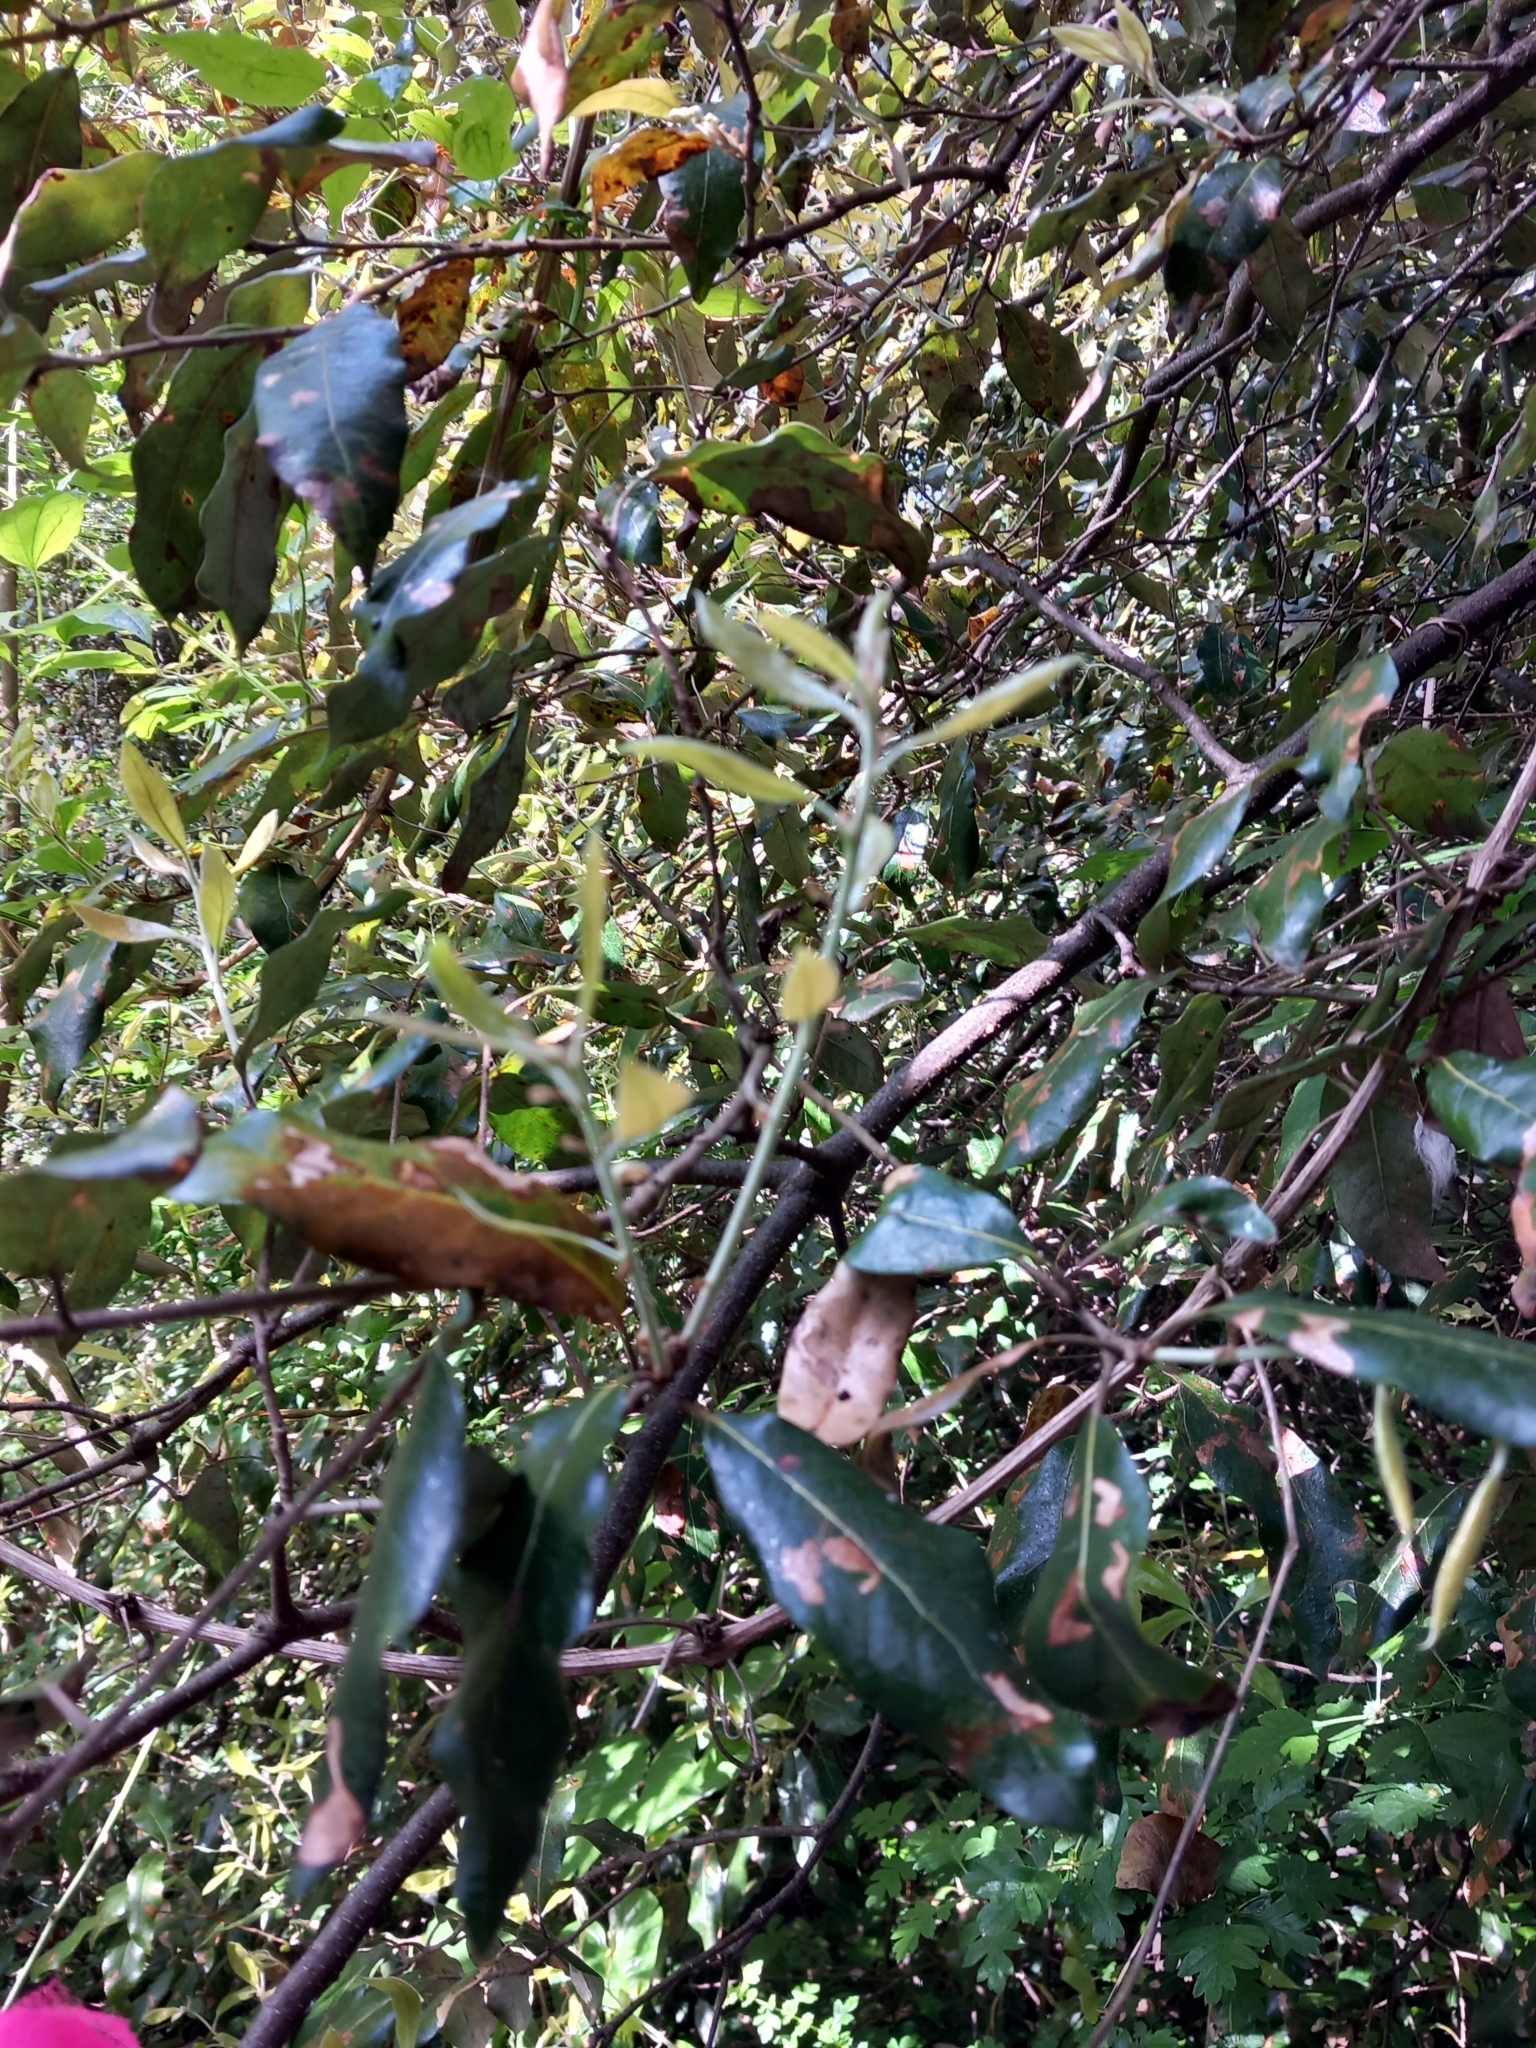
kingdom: Plantae
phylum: Tracheophyta
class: Magnoliopsida
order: Fagales
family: Fagaceae
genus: Quercus
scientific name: Quercus ilex
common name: Evergreen oak
